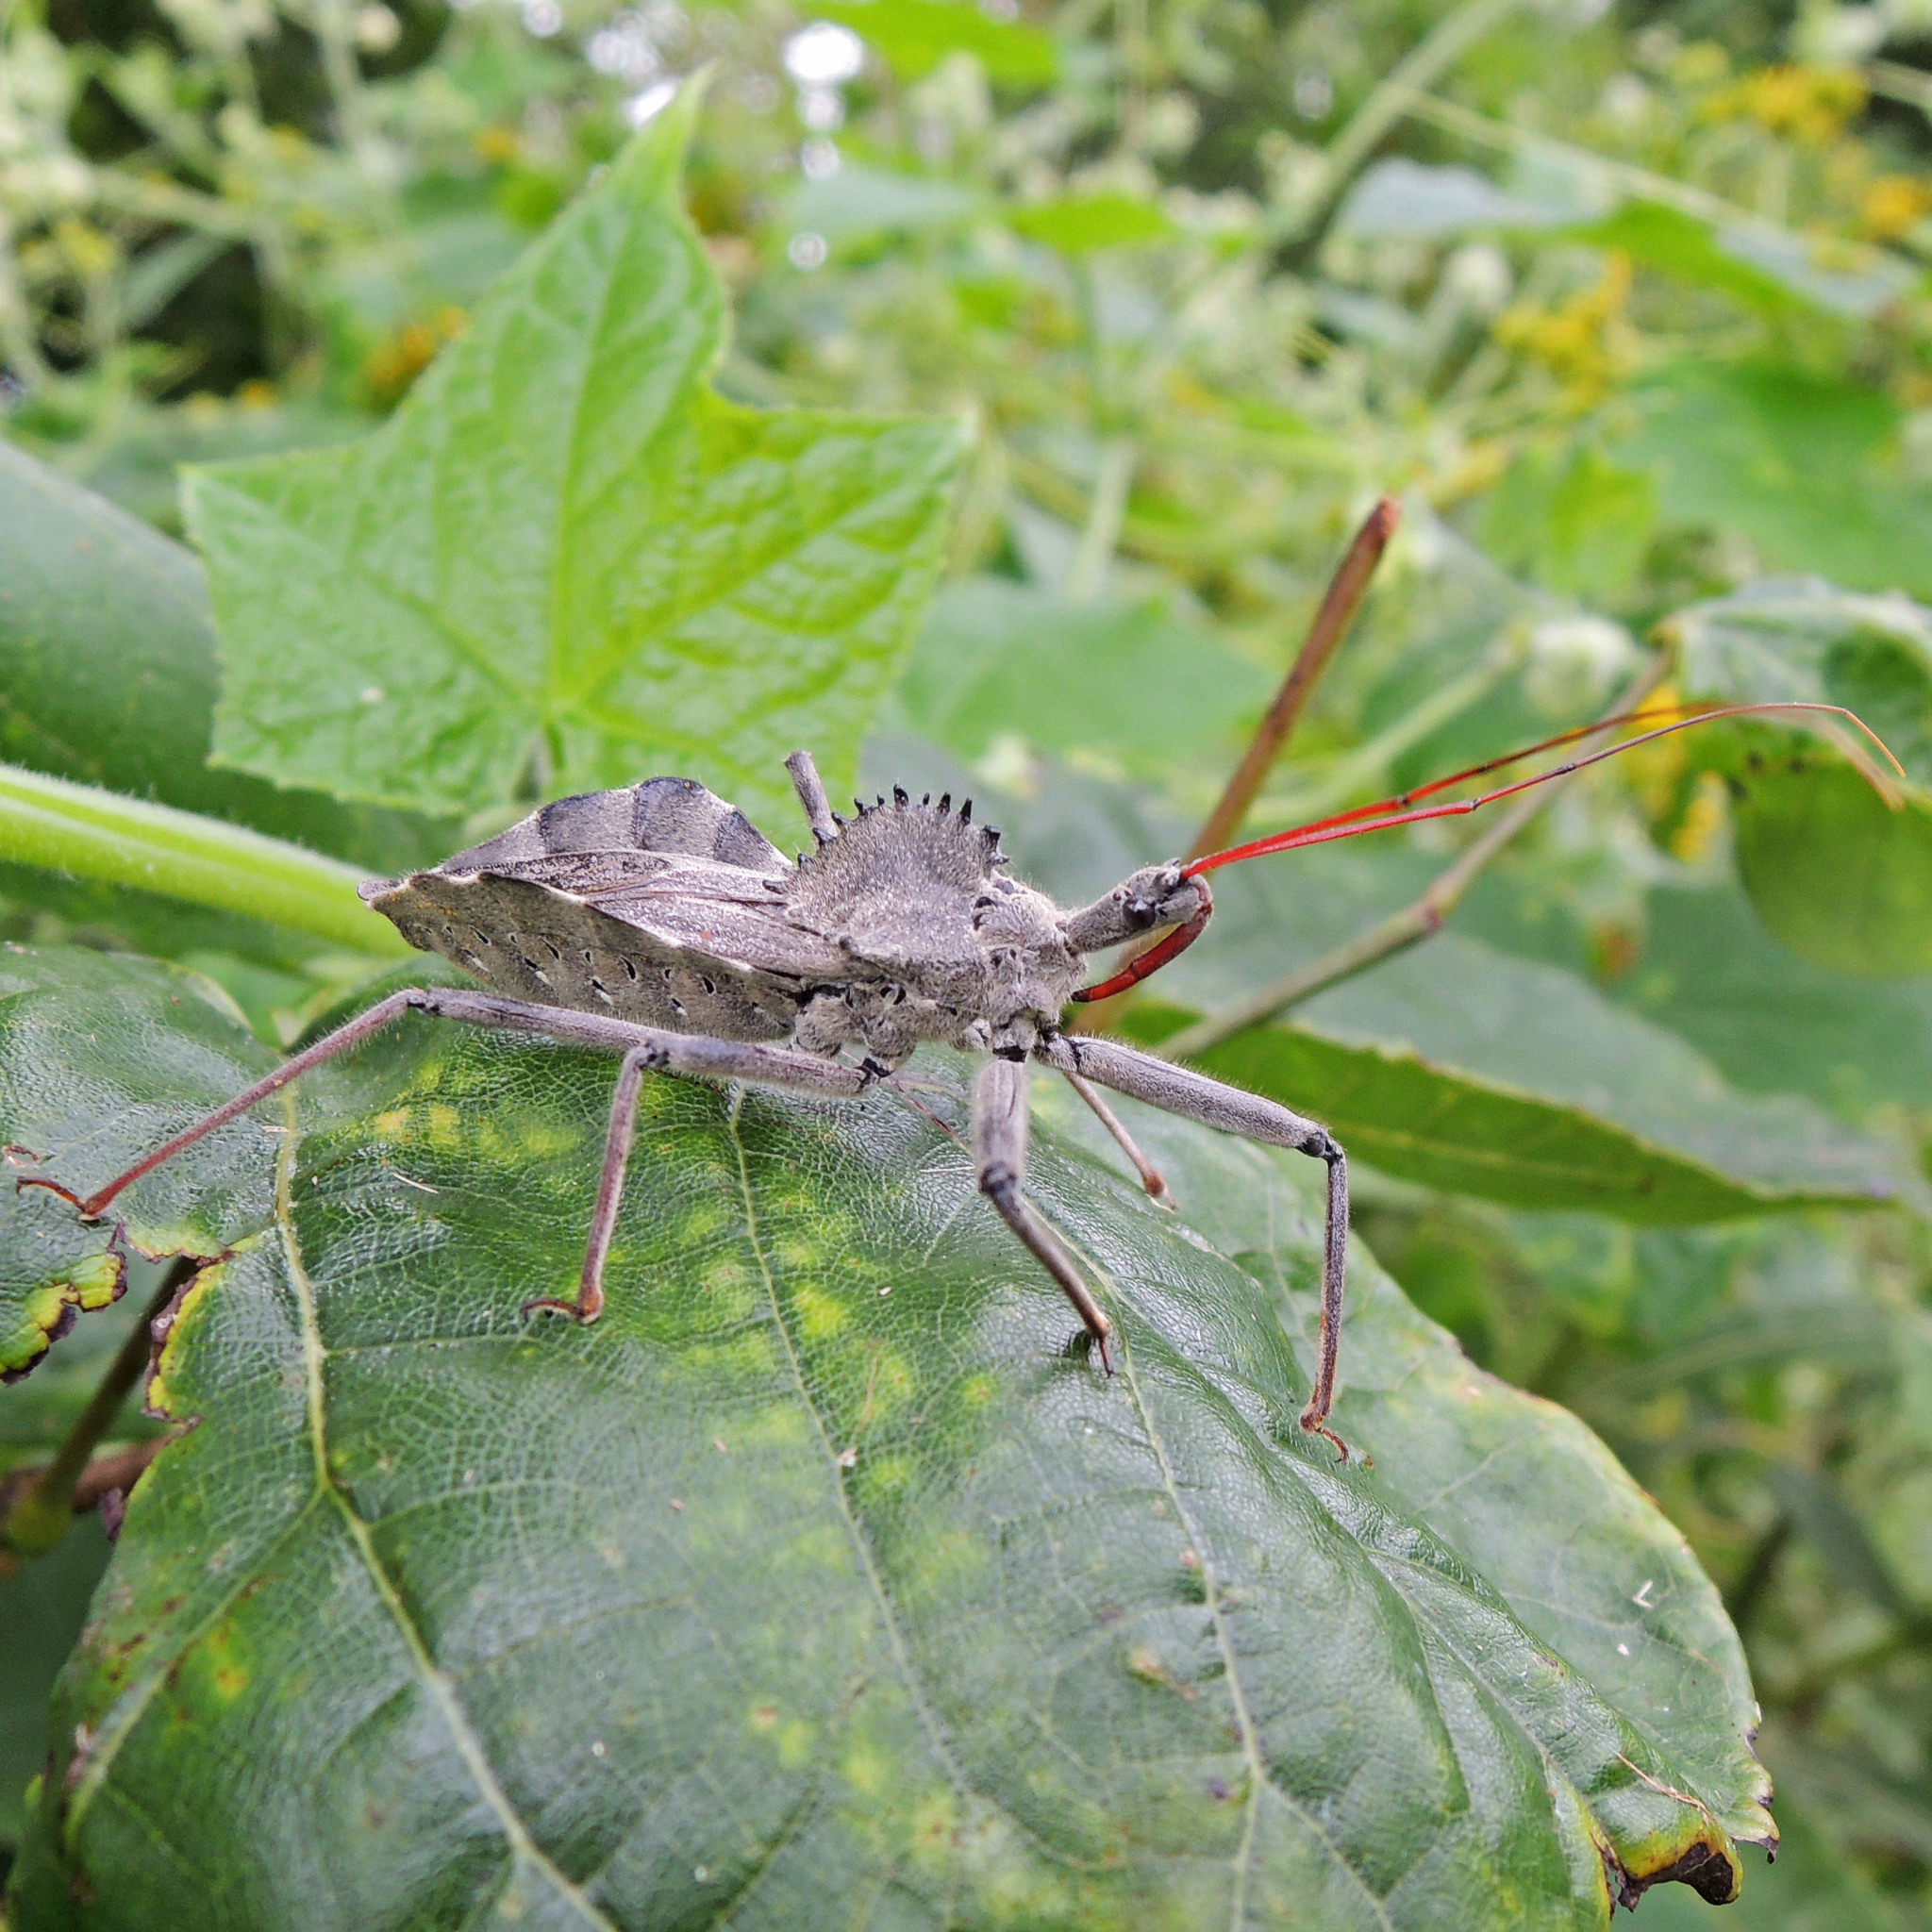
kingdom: Animalia
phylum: Arthropoda
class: Insecta
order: Hemiptera
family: Reduviidae
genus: Arilus
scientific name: Arilus cristatus
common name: North american wheel bug
